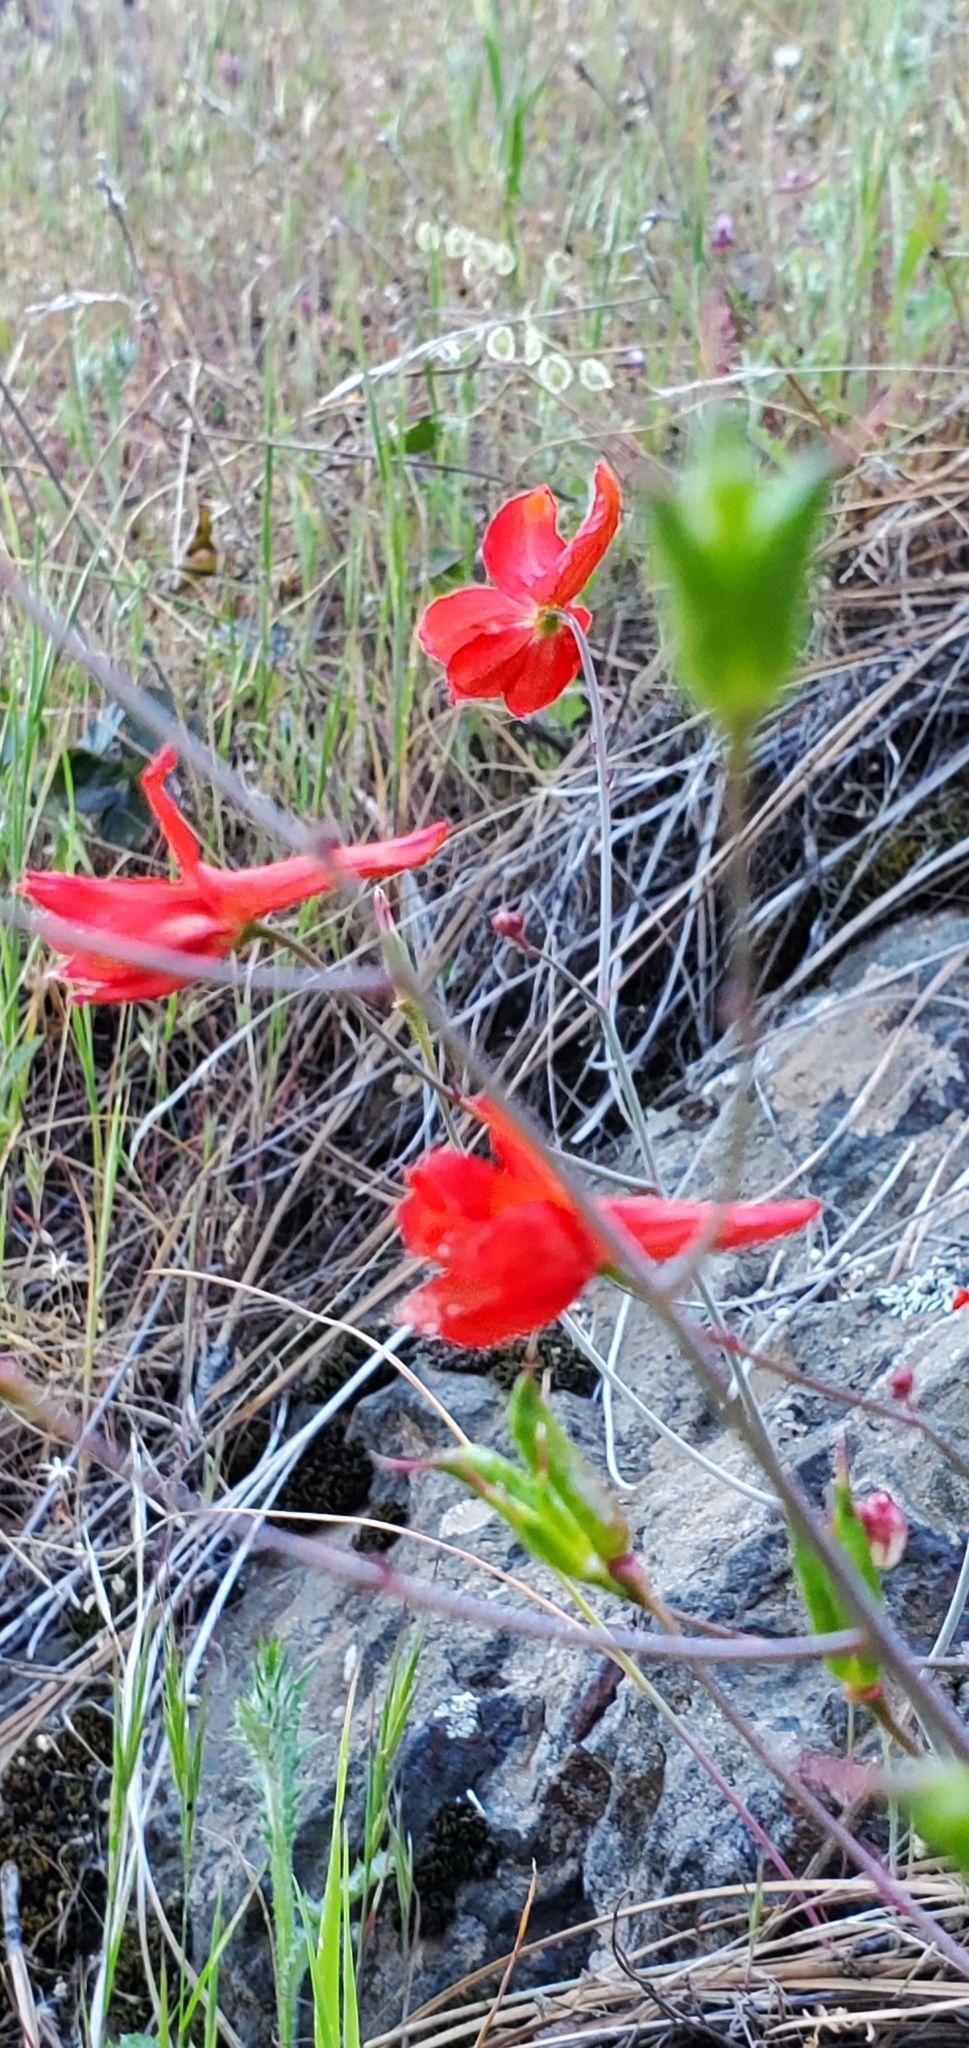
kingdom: Plantae
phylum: Tracheophyta
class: Magnoliopsida
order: Ranunculales
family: Ranunculaceae
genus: Delphinium
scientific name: Delphinium nudicaule
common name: Red larkspur
